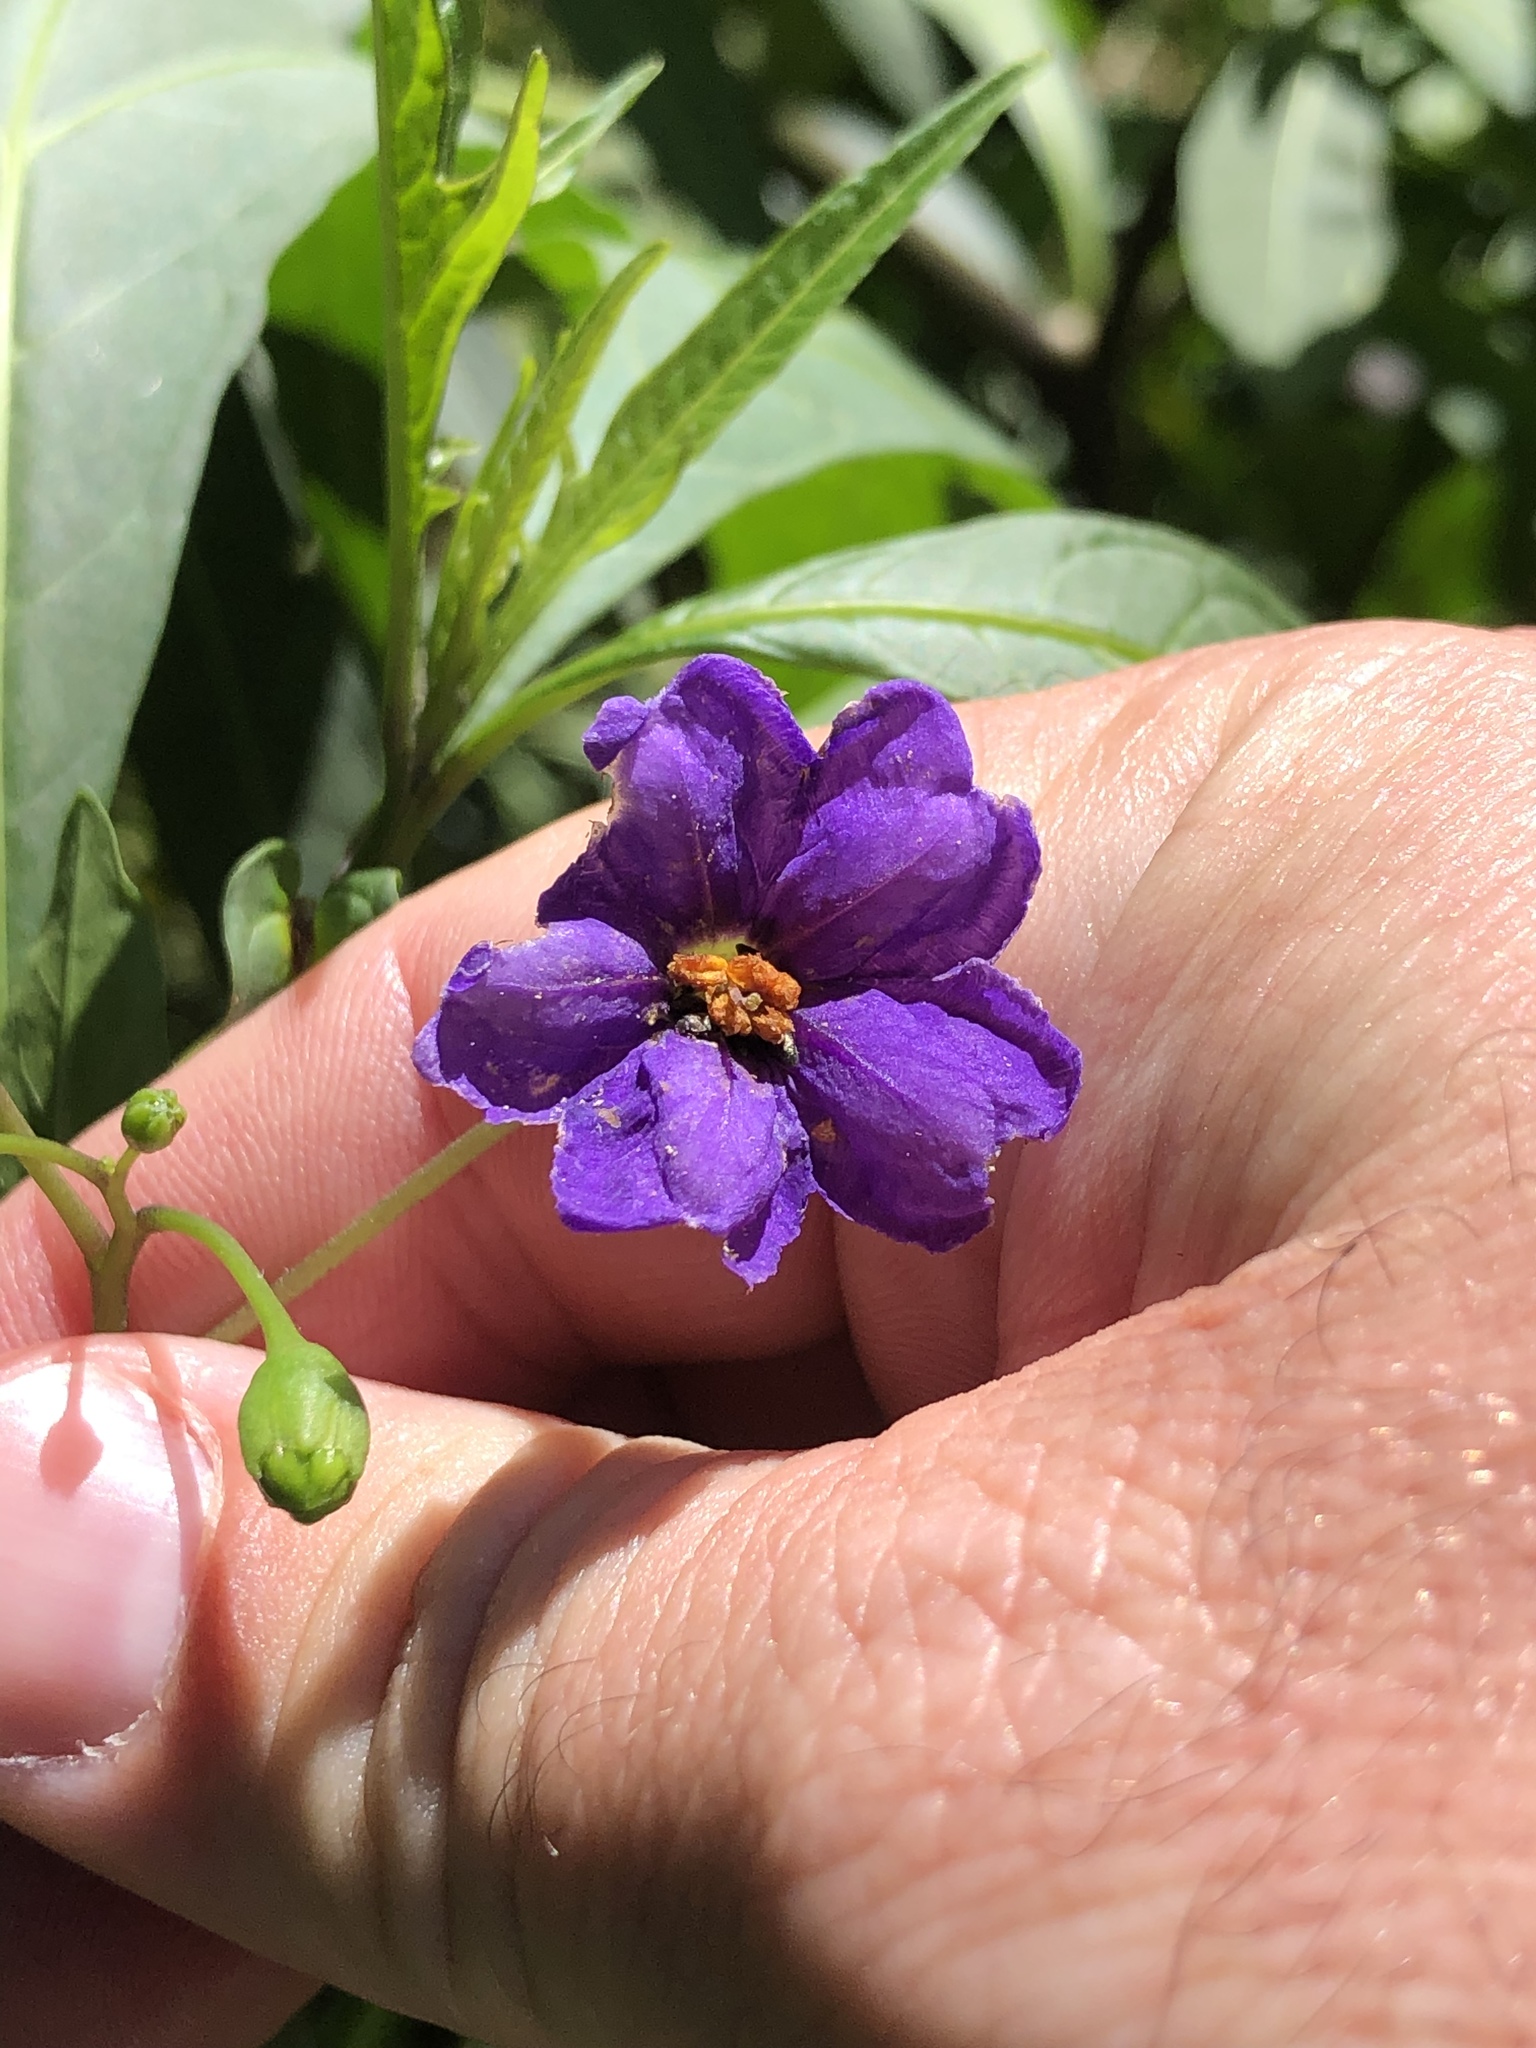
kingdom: Plantae
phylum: Tracheophyta
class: Magnoliopsida
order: Solanales
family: Solanaceae
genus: Solanum
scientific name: Solanum laciniatum
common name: Kangaroo-apple
